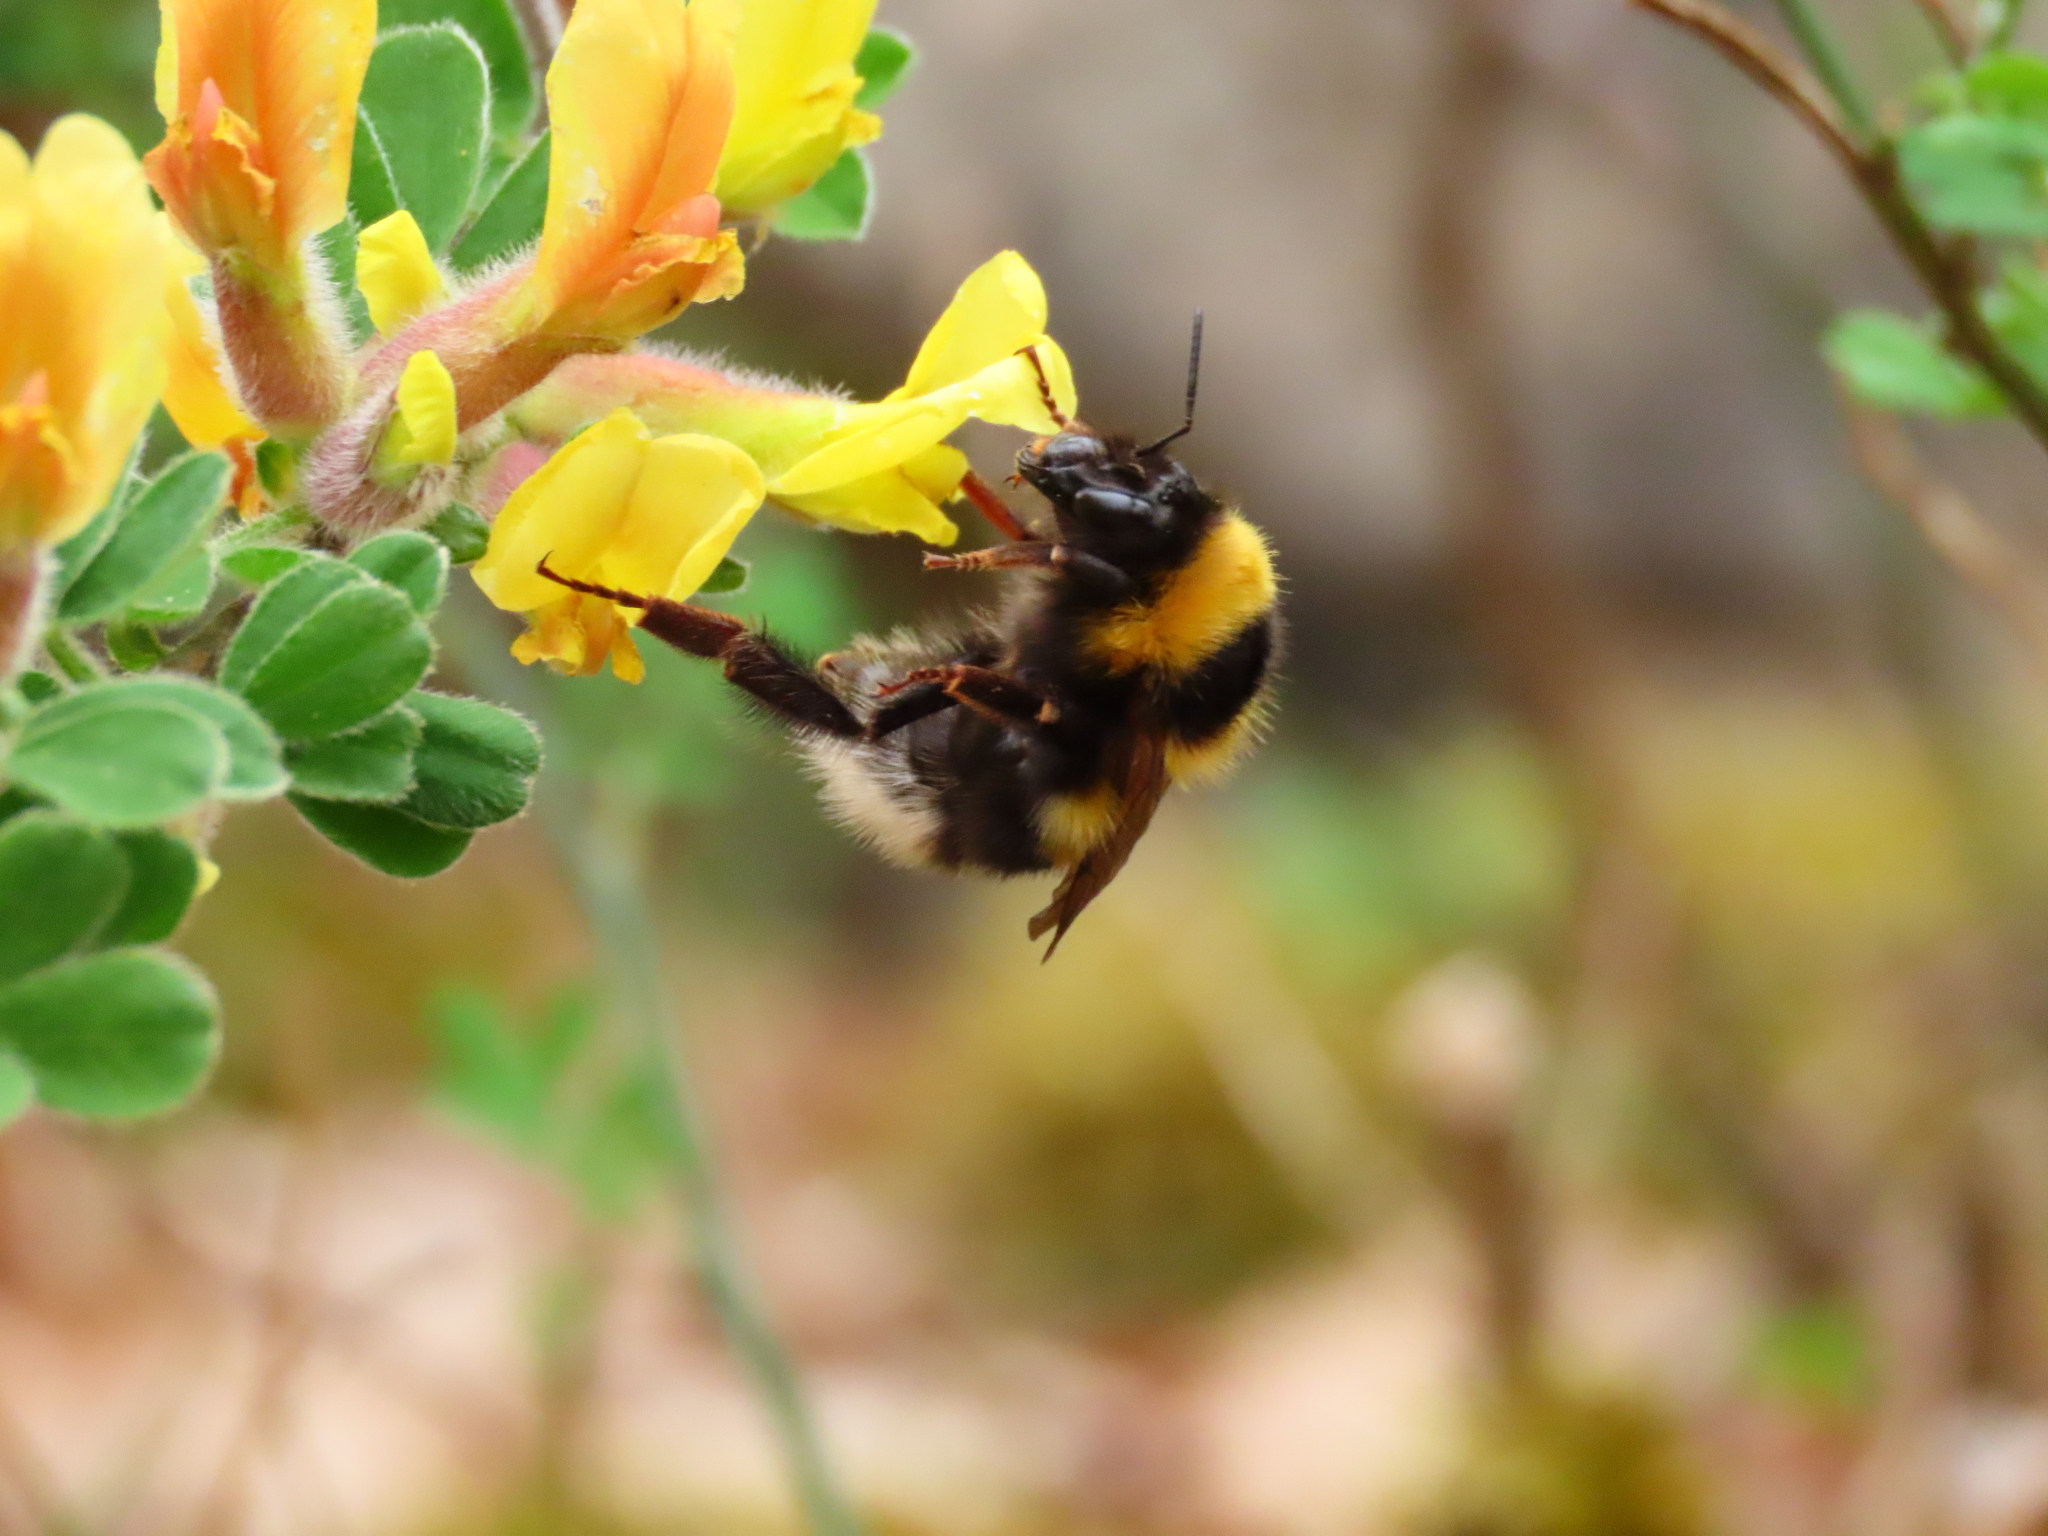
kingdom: Animalia
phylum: Arthropoda
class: Insecta
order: Hymenoptera
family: Apidae
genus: Bombus
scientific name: Bombus hortorum
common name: Garden bumblebee
